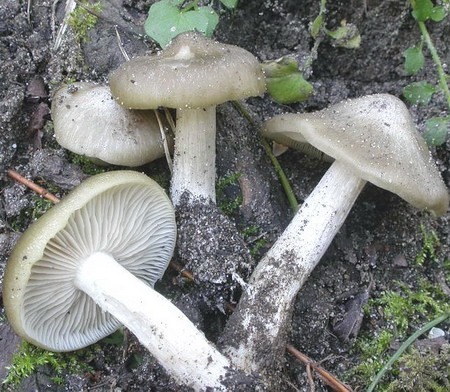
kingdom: Fungi
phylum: Basidiomycota
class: Agaricomycetes
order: Agaricales
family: Entolomataceae
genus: Entoloma
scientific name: Entoloma aprile
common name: Aprilrødspore
